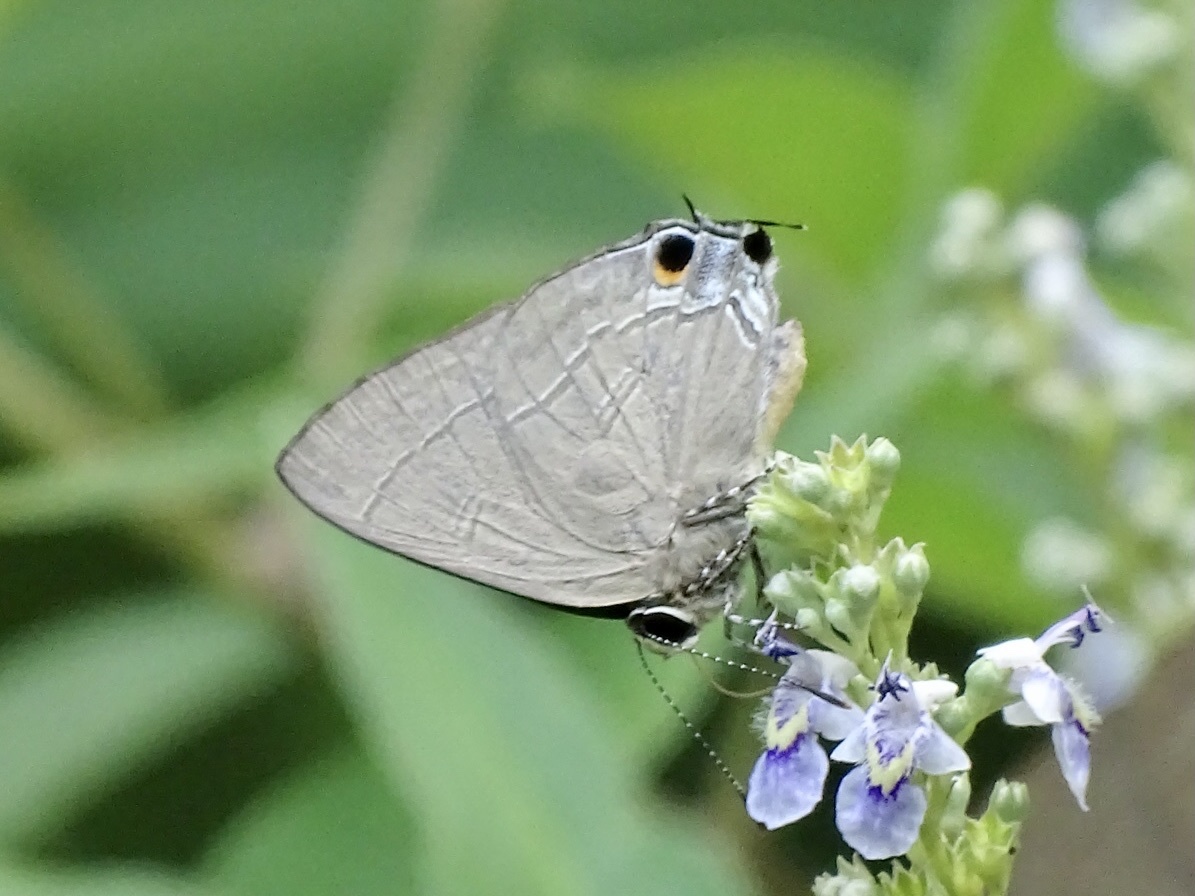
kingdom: Animalia
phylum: Arthropoda
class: Insecta
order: Lepidoptera
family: Lycaenidae
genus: Rapala
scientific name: Rapala manea
